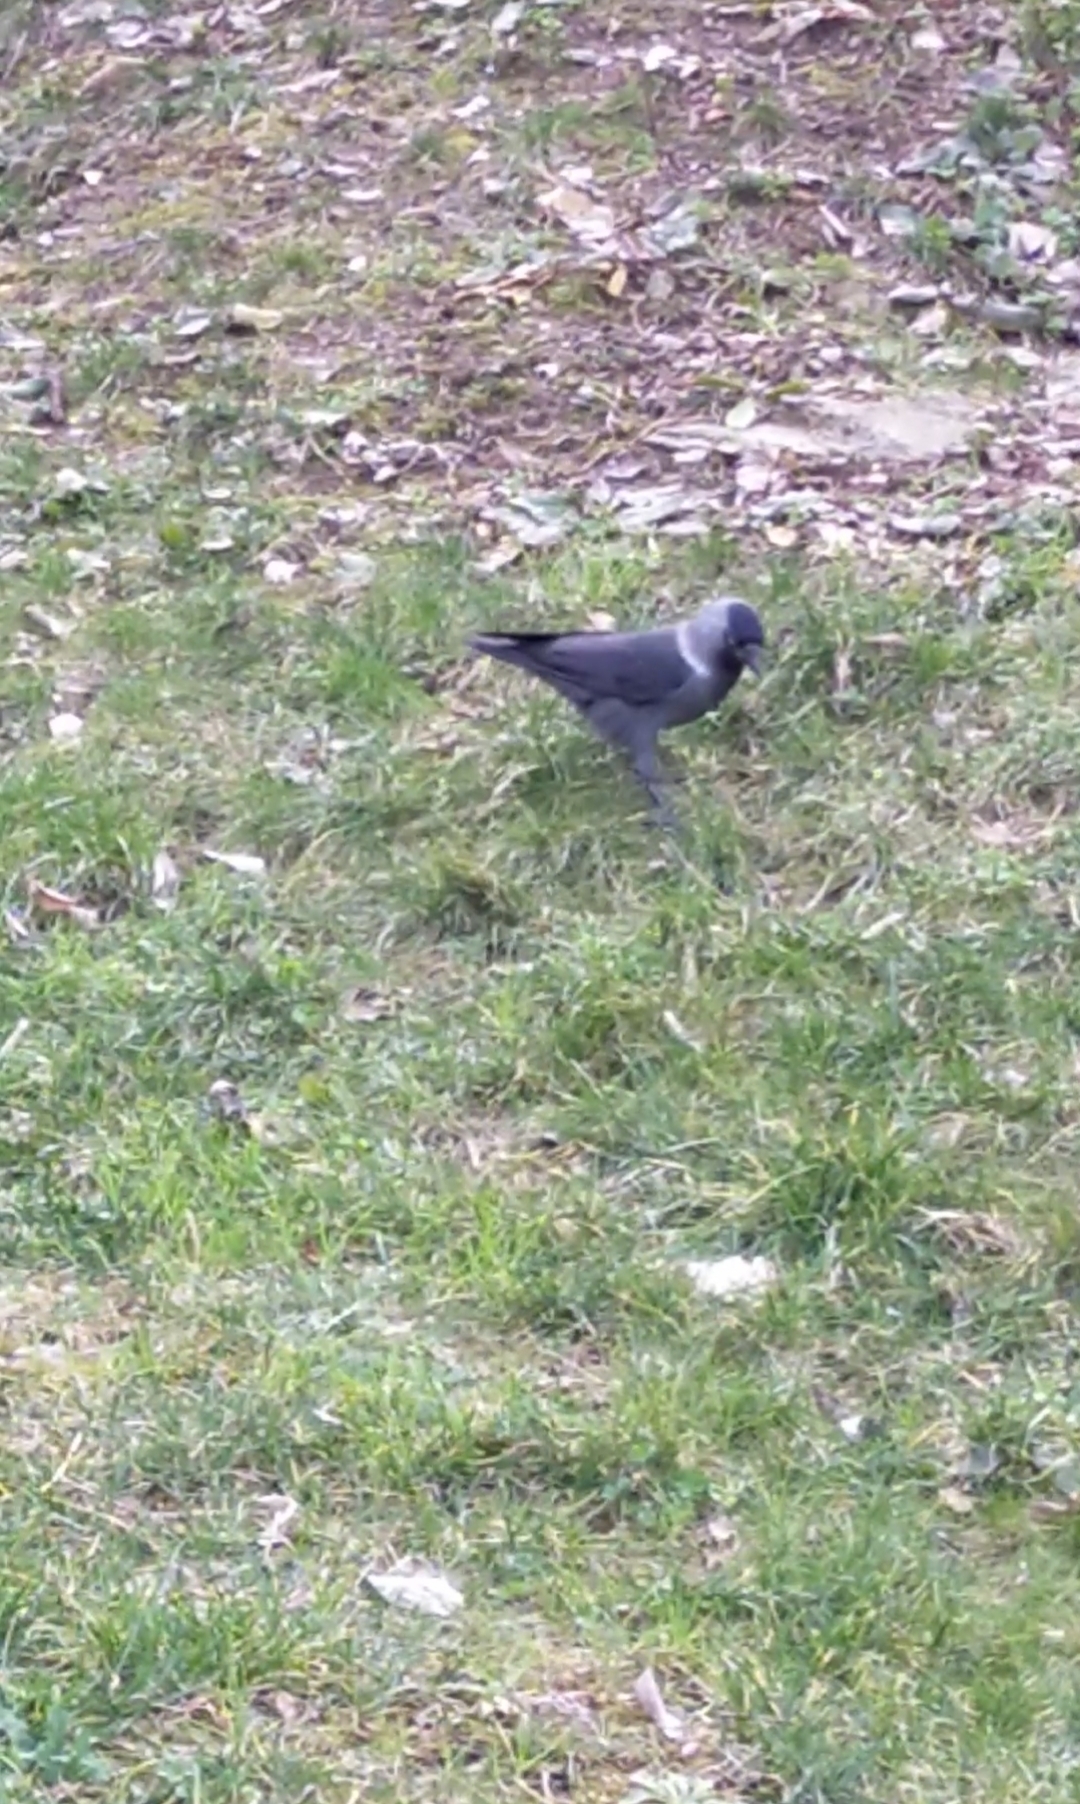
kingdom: Animalia
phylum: Chordata
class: Aves
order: Passeriformes
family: Corvidae
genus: Coloeus
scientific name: Coloeus monedula
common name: Western jackdaw
